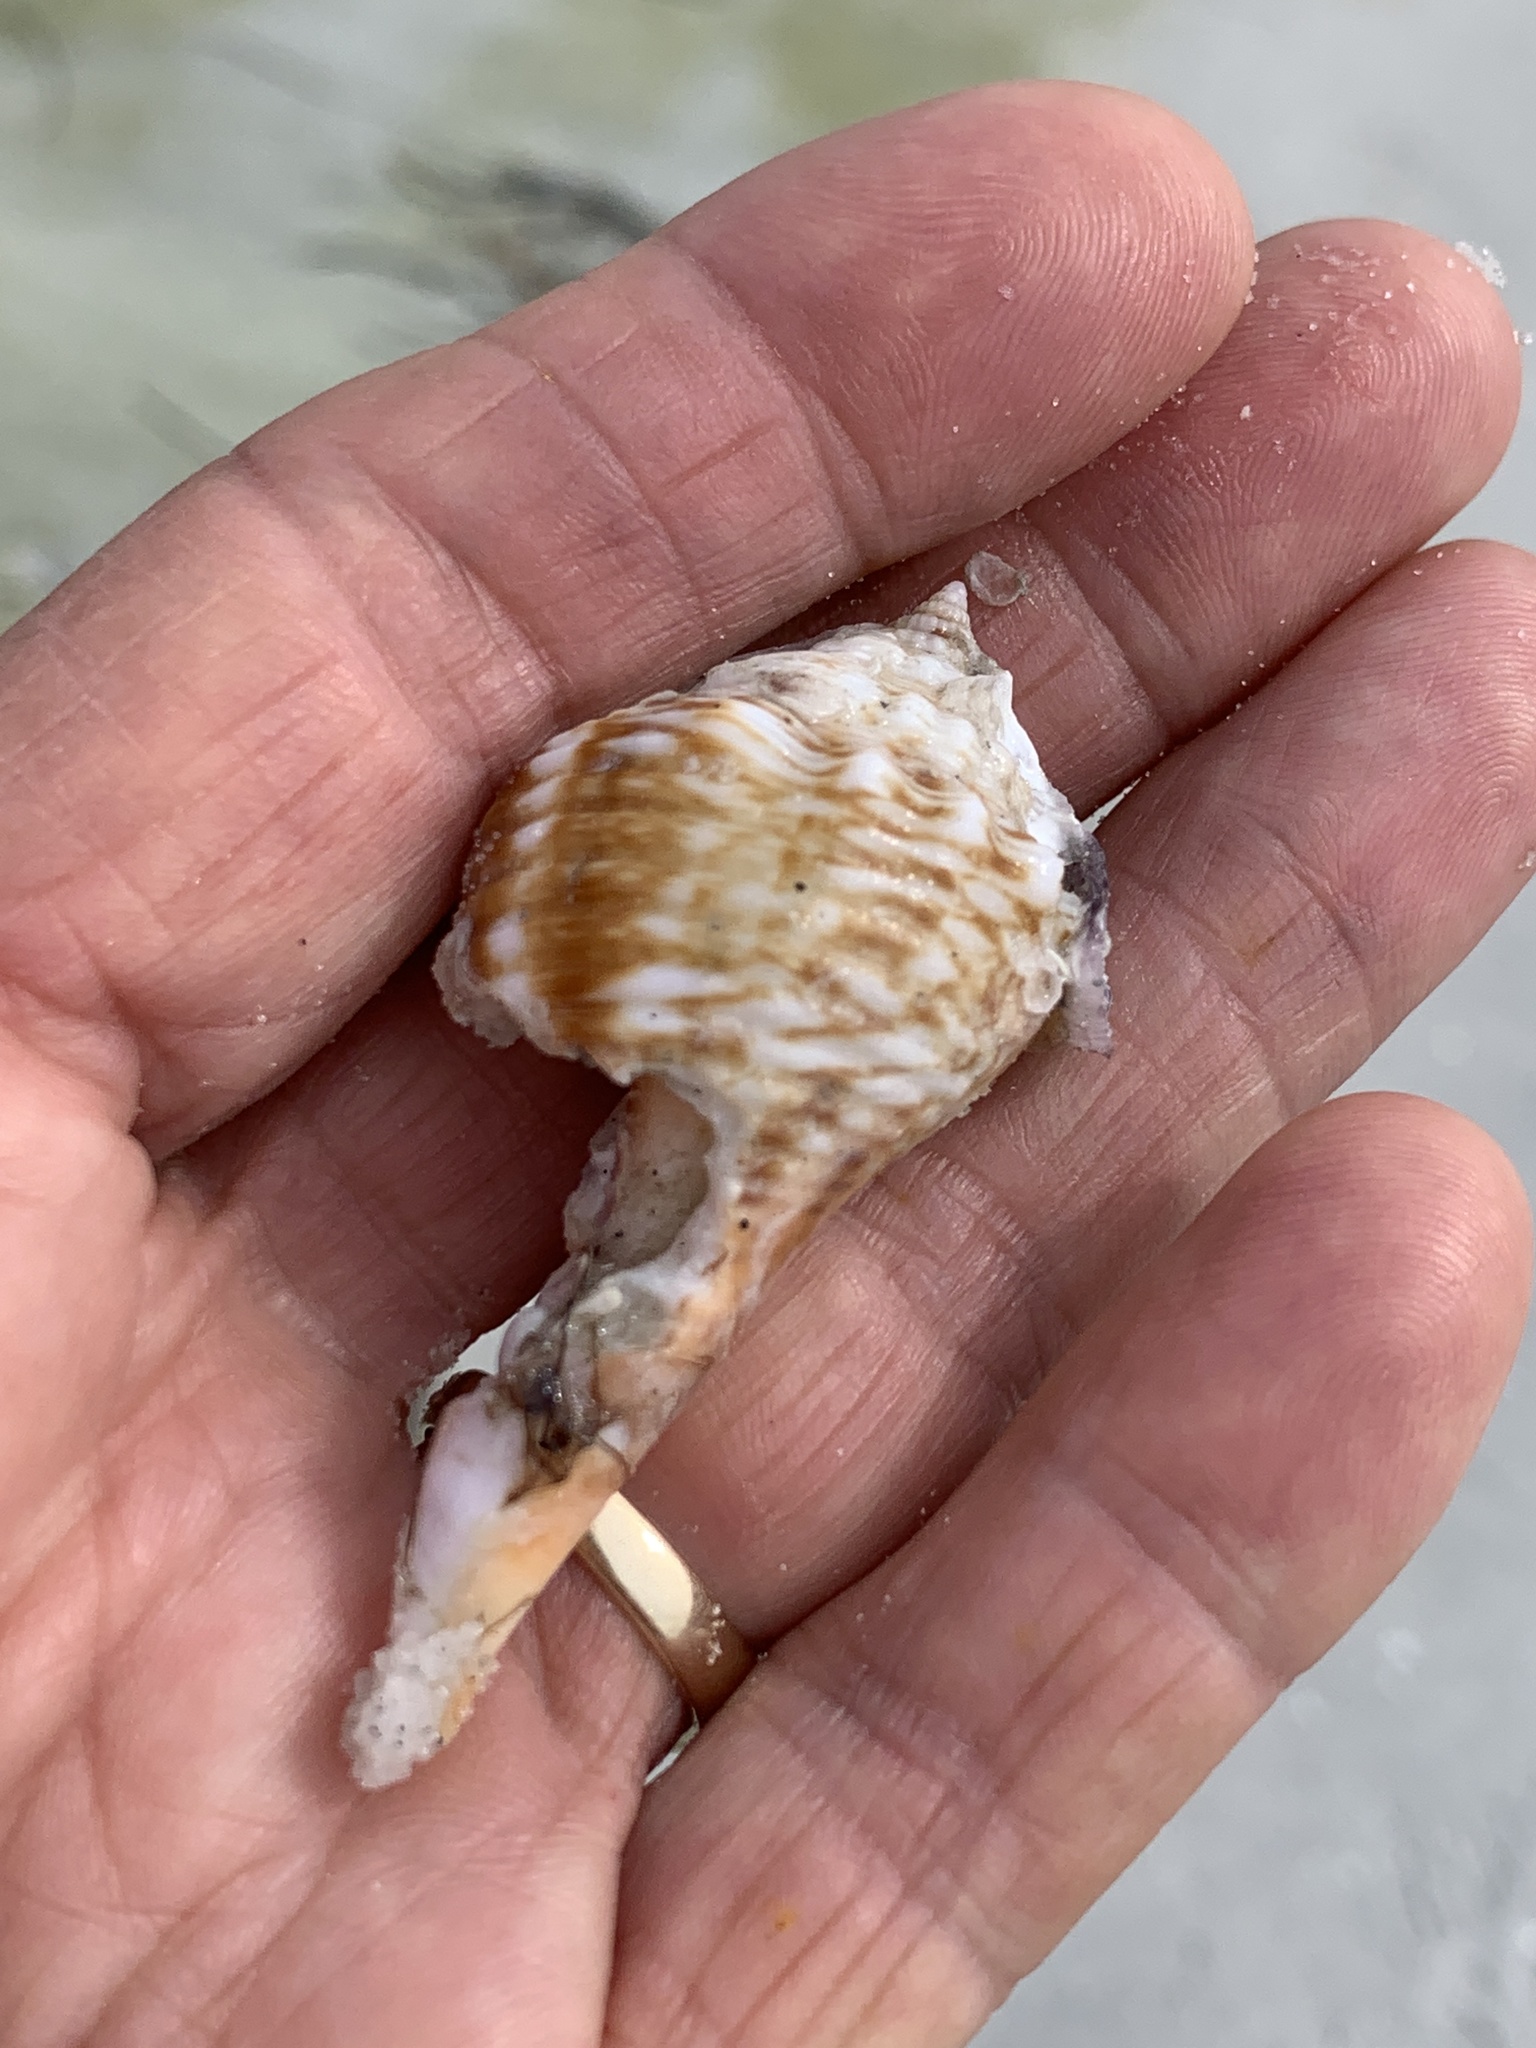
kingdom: Animalia
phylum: Mollusca
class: Gastropoda
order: Littorinimorpha
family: Strombidae
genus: Strombus
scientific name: Strombus alatus
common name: Florida fighting conch
